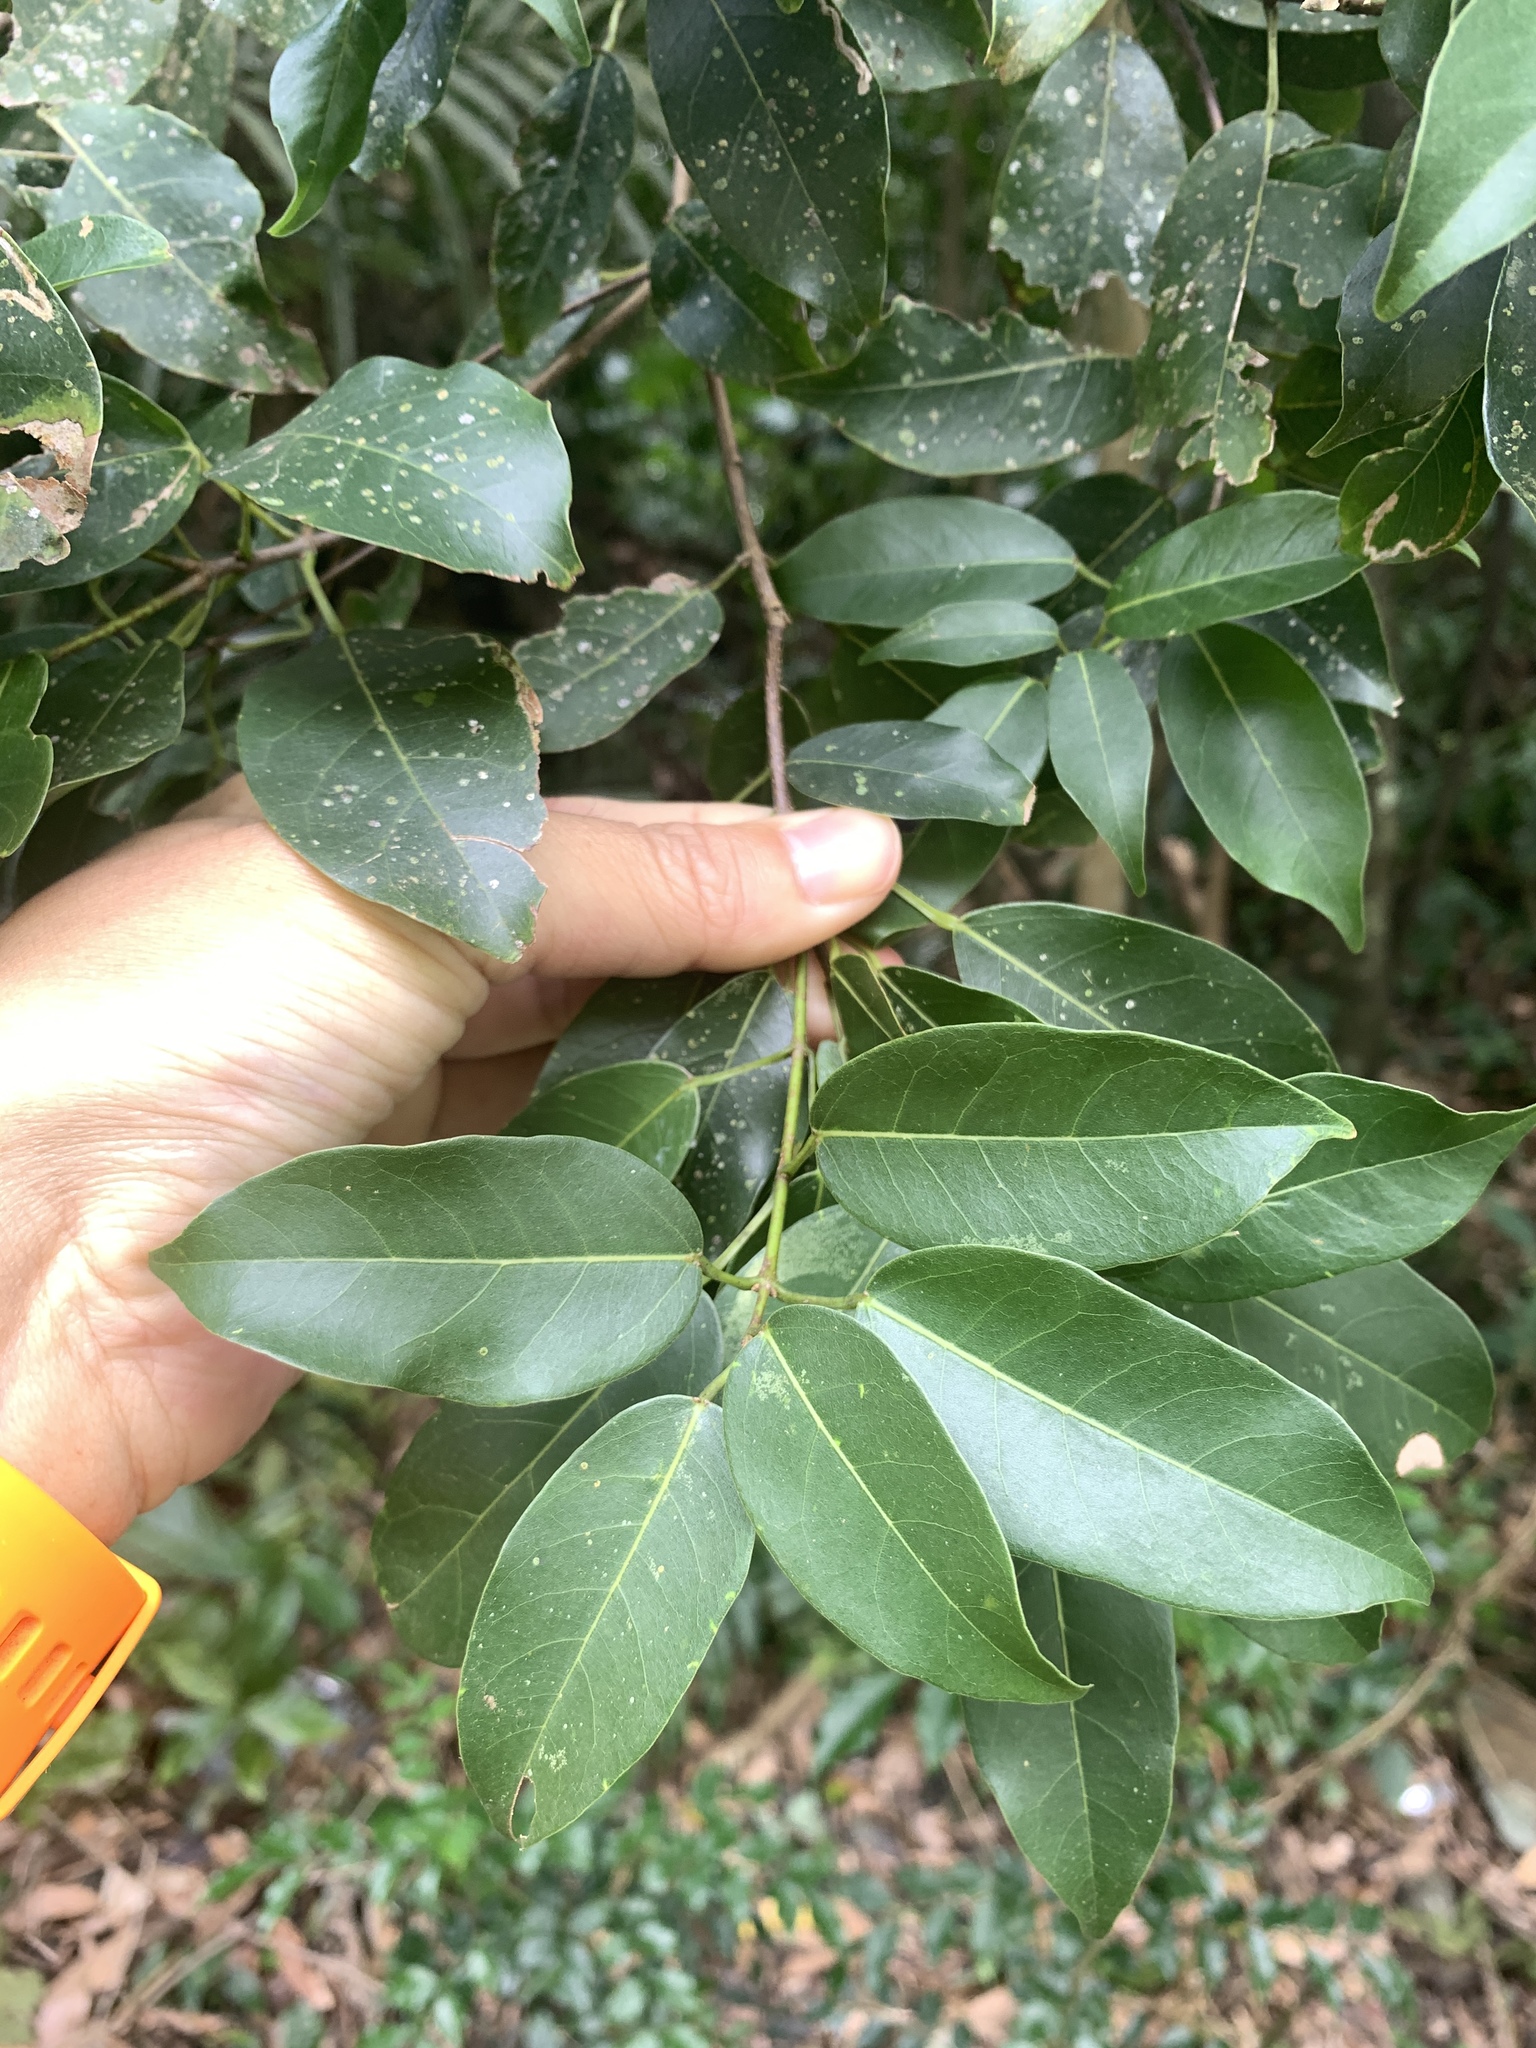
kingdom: Plantae
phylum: Tracheophyta
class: Magnoliopsida
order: Sapindales
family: Sapindaceae
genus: Acer
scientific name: Acer oblongum
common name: Himalayan maple
